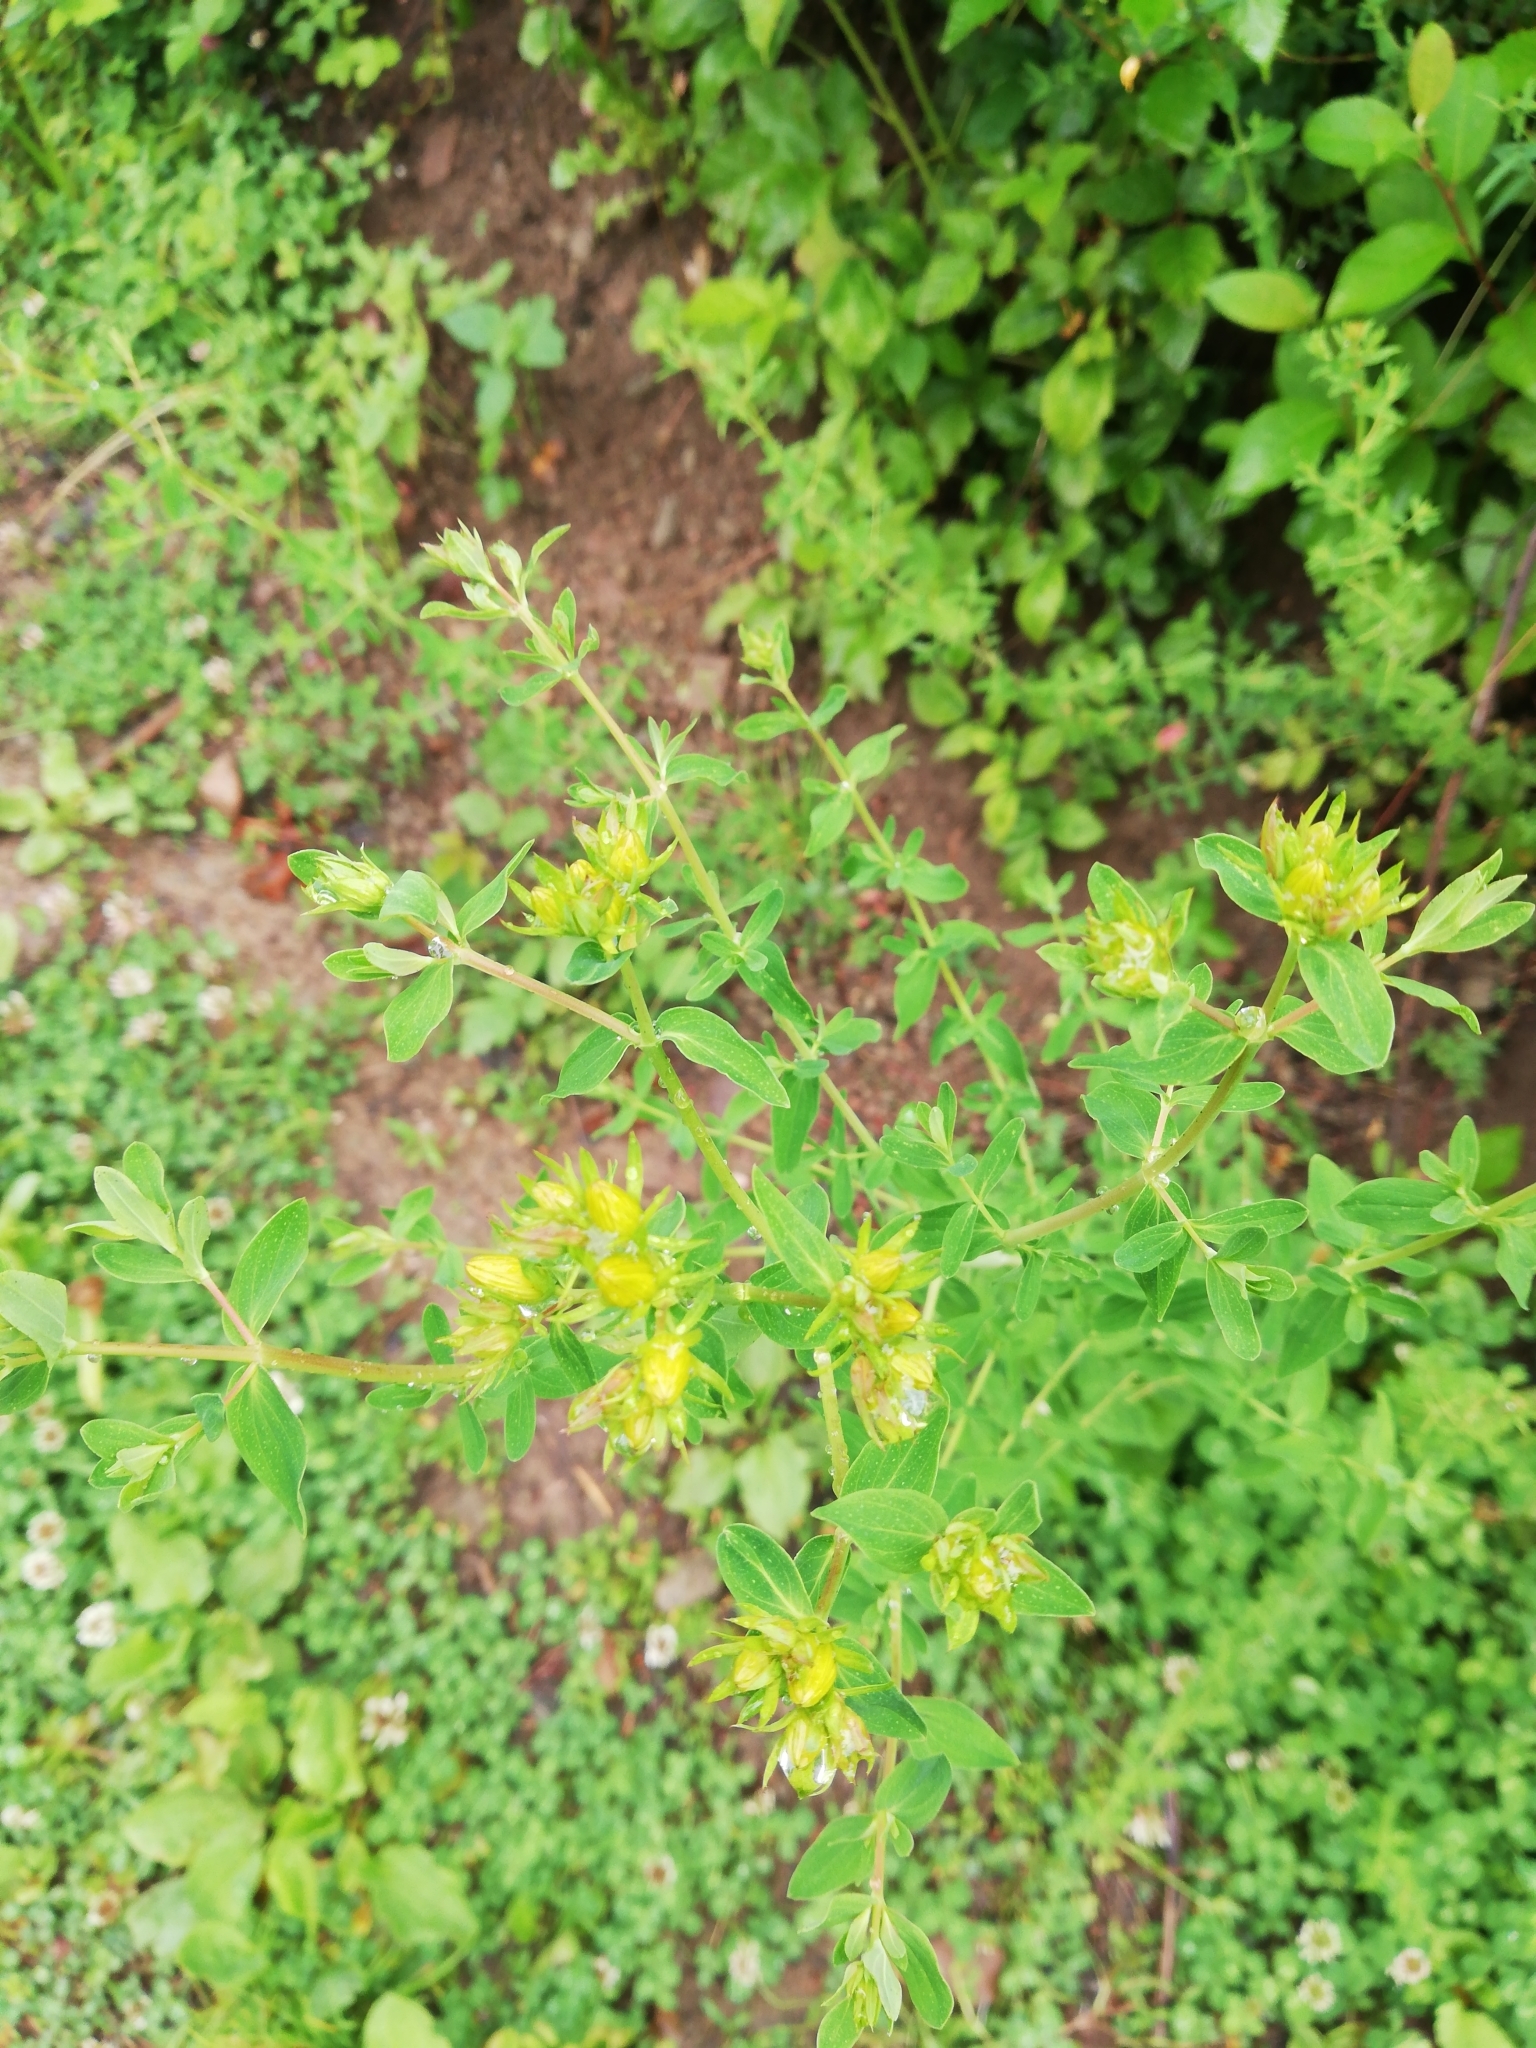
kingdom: Plantae
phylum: Tracheophyta
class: Magnoliopsida
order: Malpighiales
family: Hypericaceae
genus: Hypericum
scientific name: Hypericum perforatum
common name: Common st. johnswort
